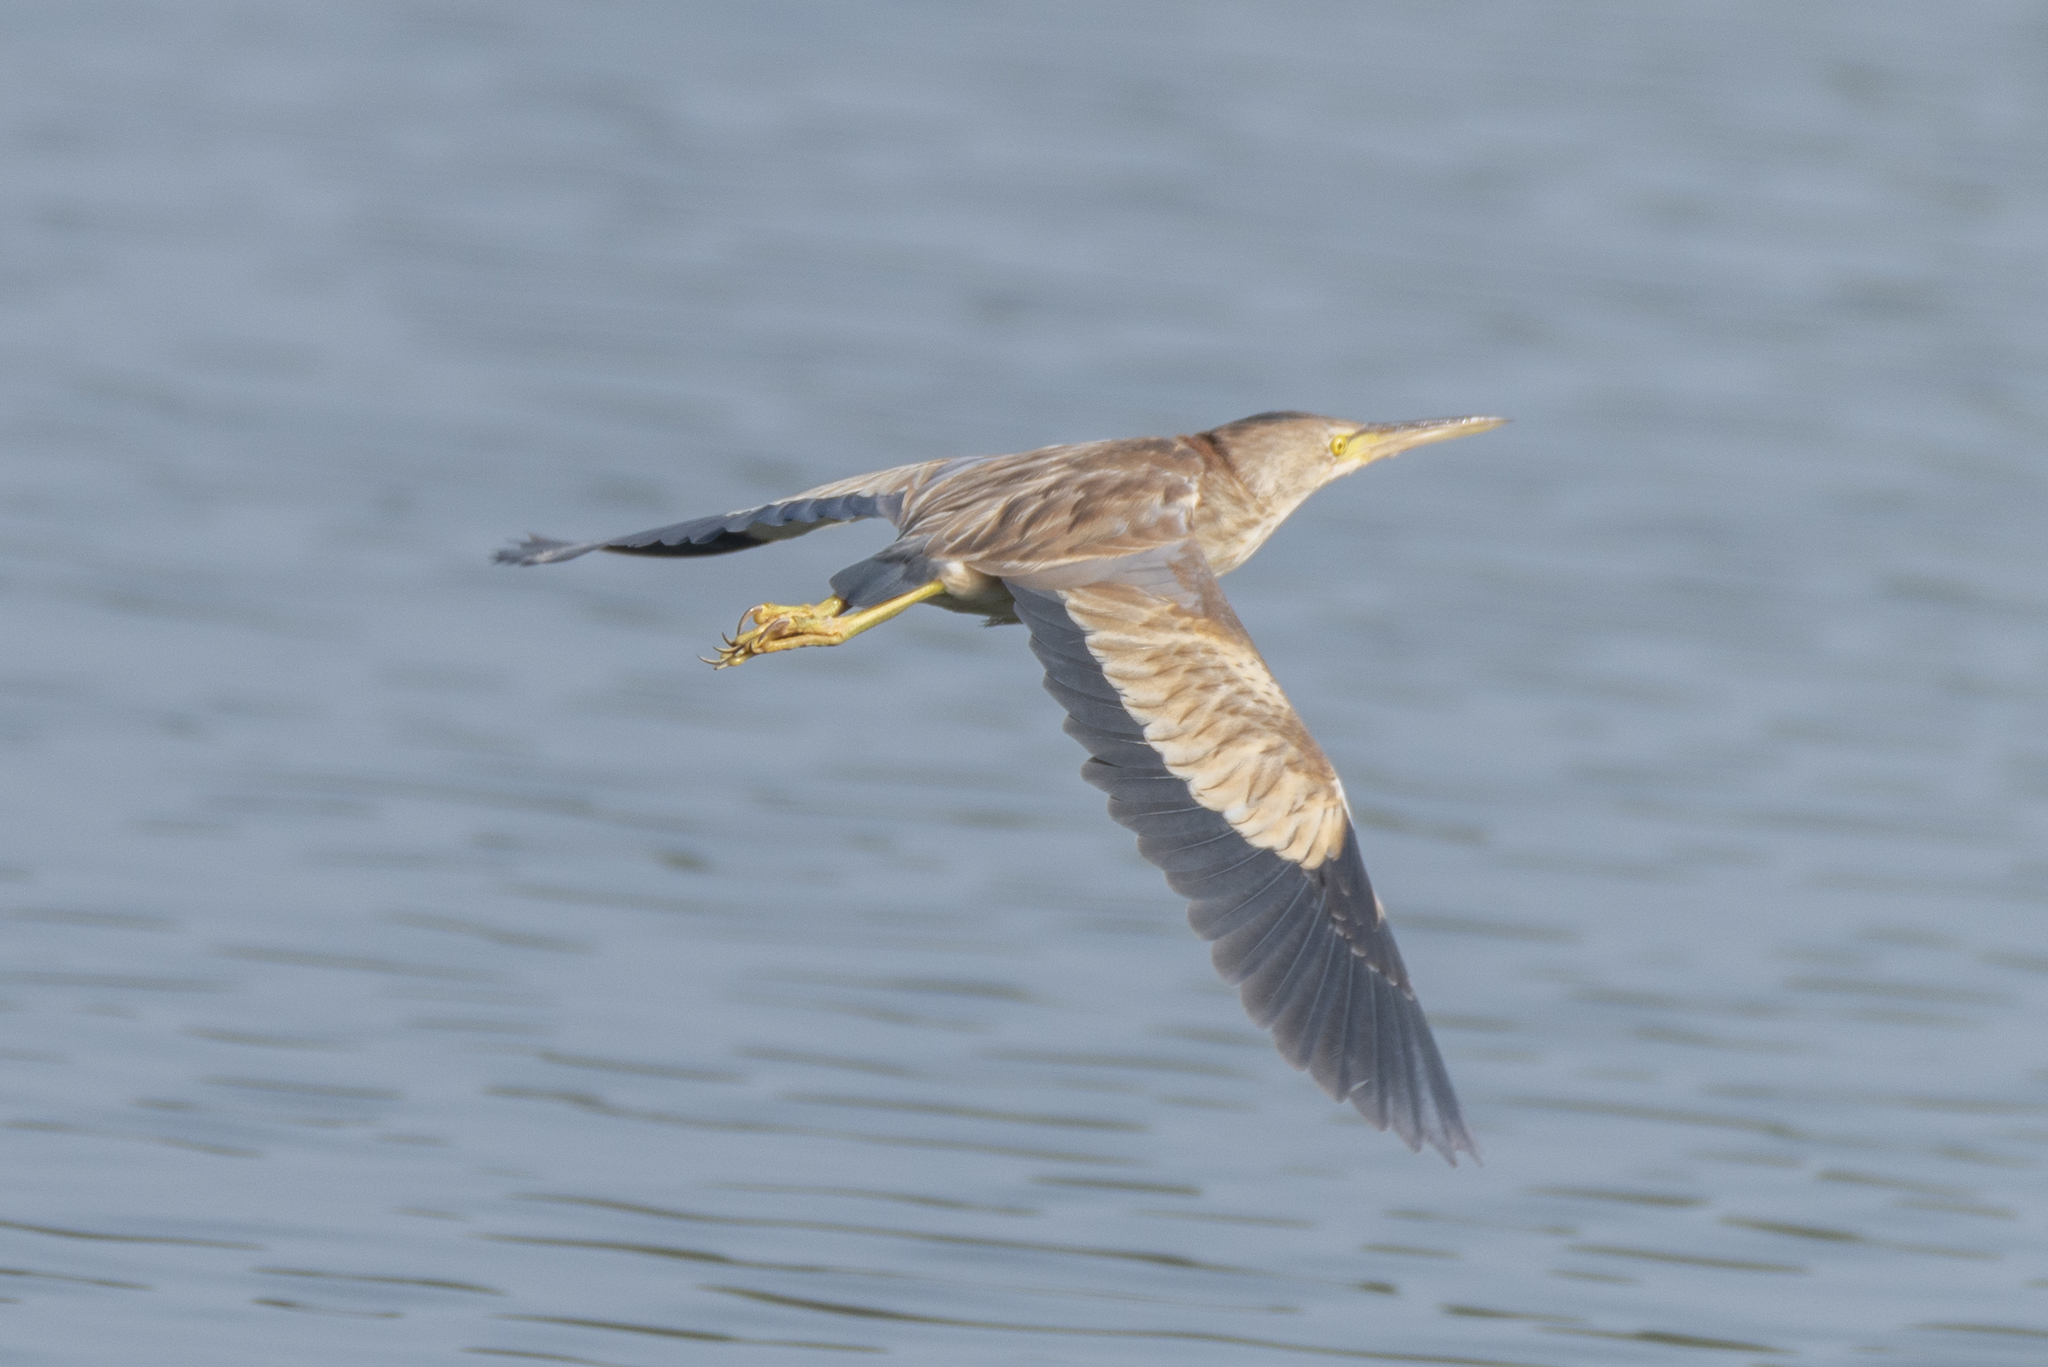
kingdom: Animalia
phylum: Chordata
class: Aves
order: Pelecaniformes
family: Ardeidae
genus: Ixobrychus
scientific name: Ixobrychus sinensis
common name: Yellow bittern
